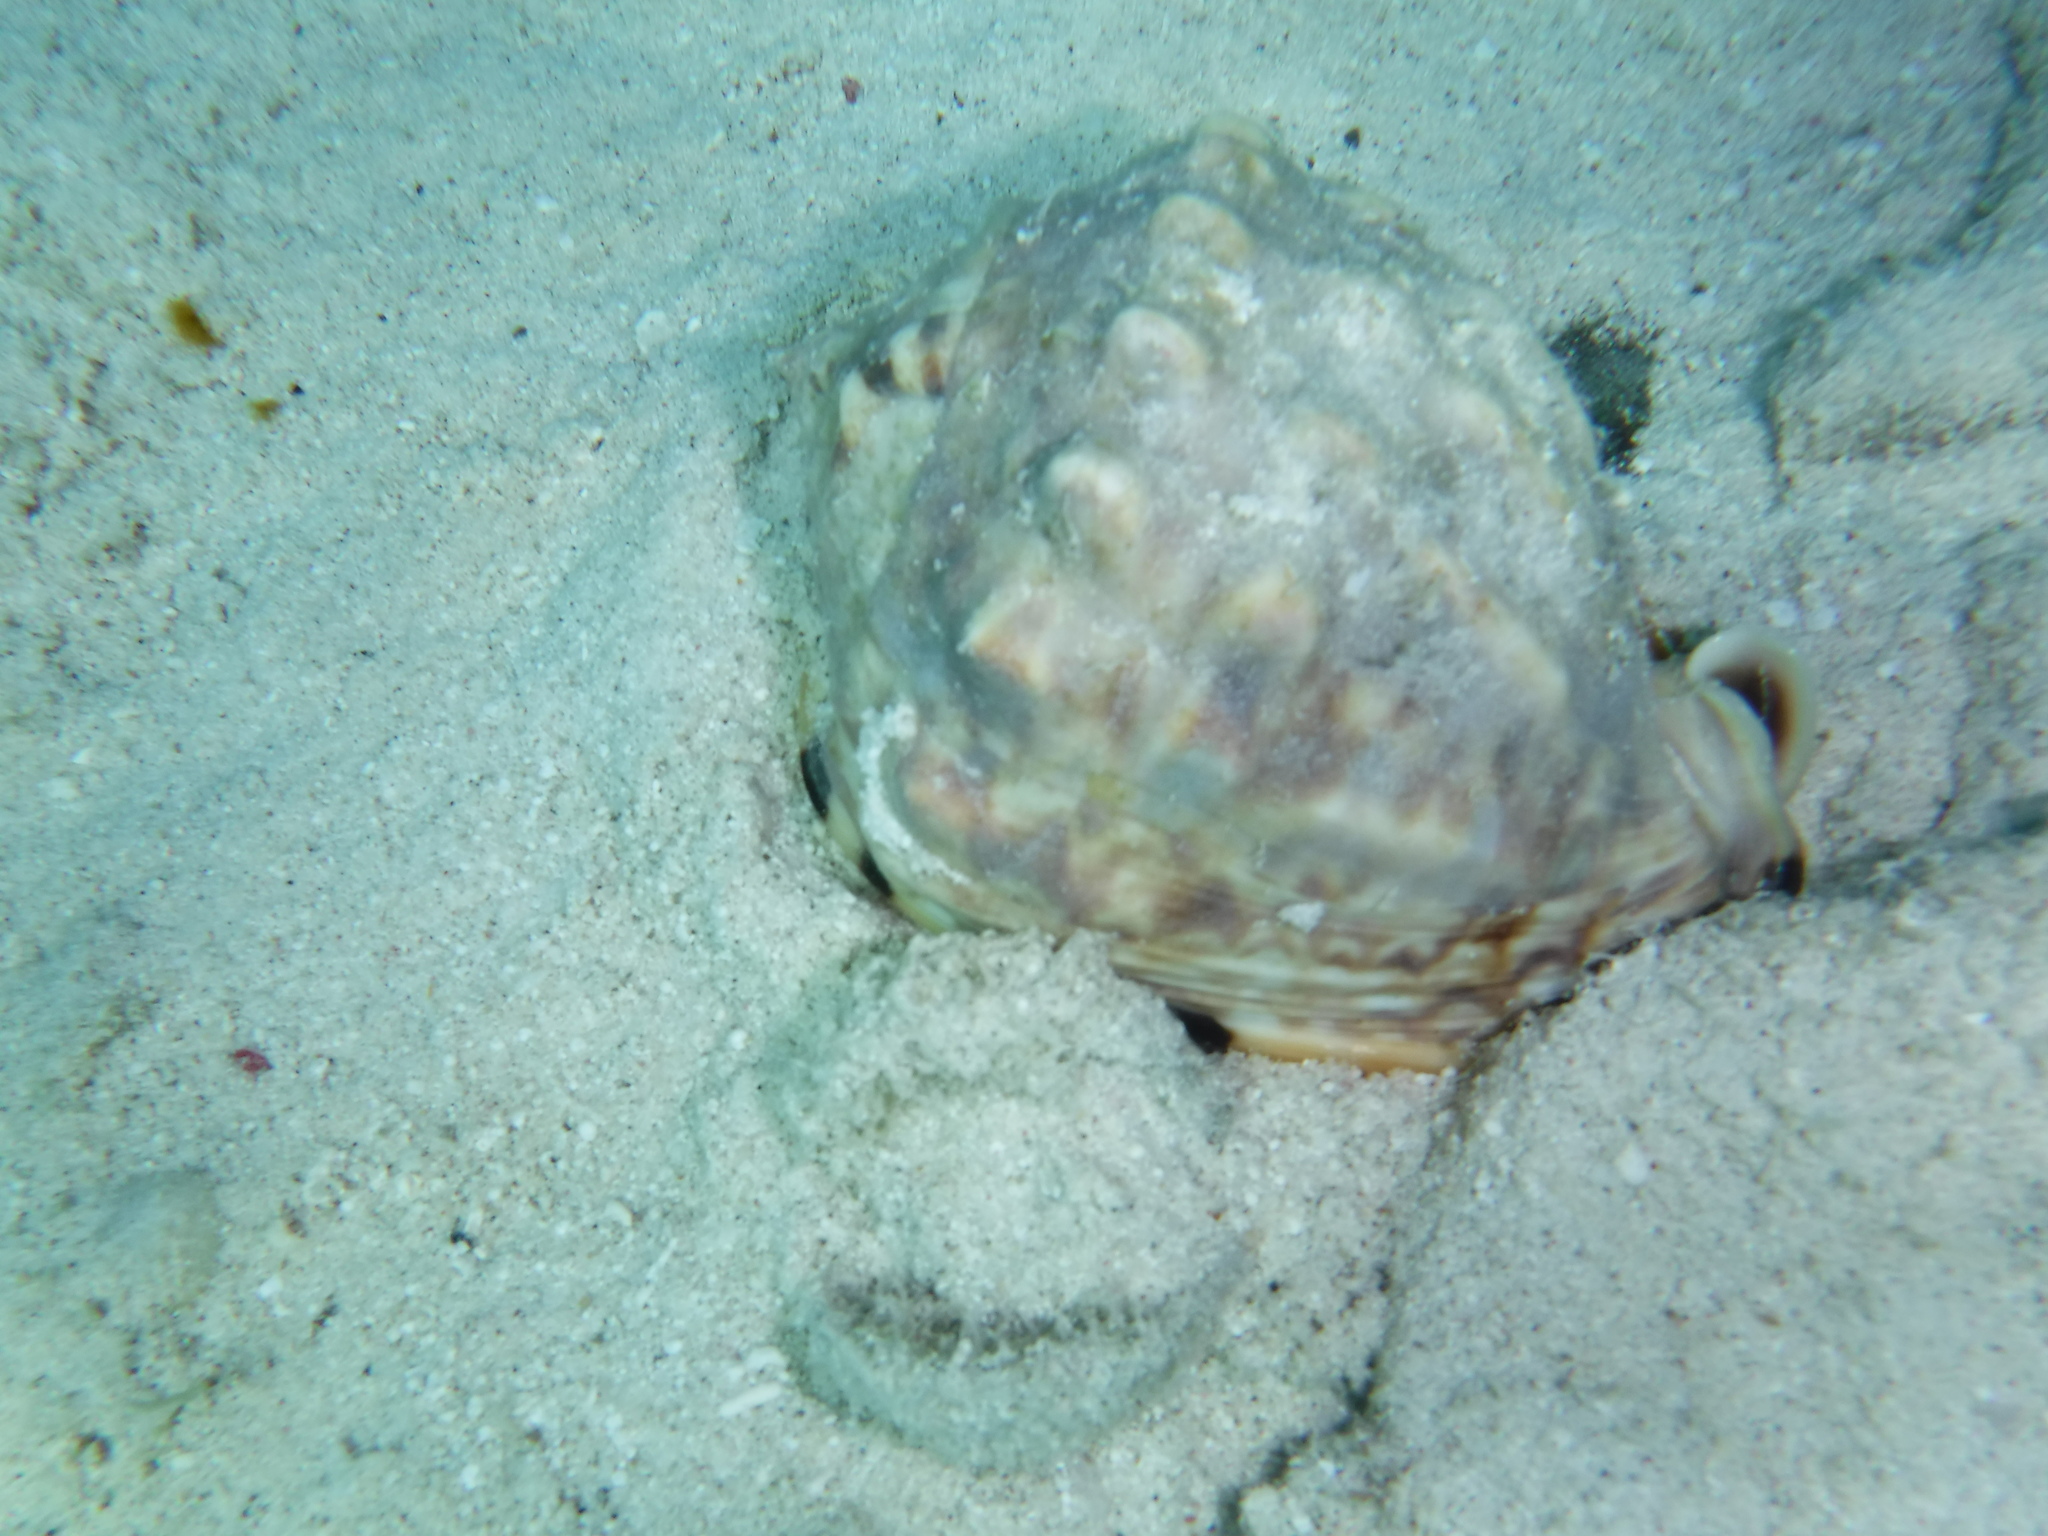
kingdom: Animalia
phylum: Mollusca
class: Gastropoda
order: Littorinimorpha
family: Cassidae
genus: Cassis
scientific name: Cassis flammea
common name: Flame helmet
